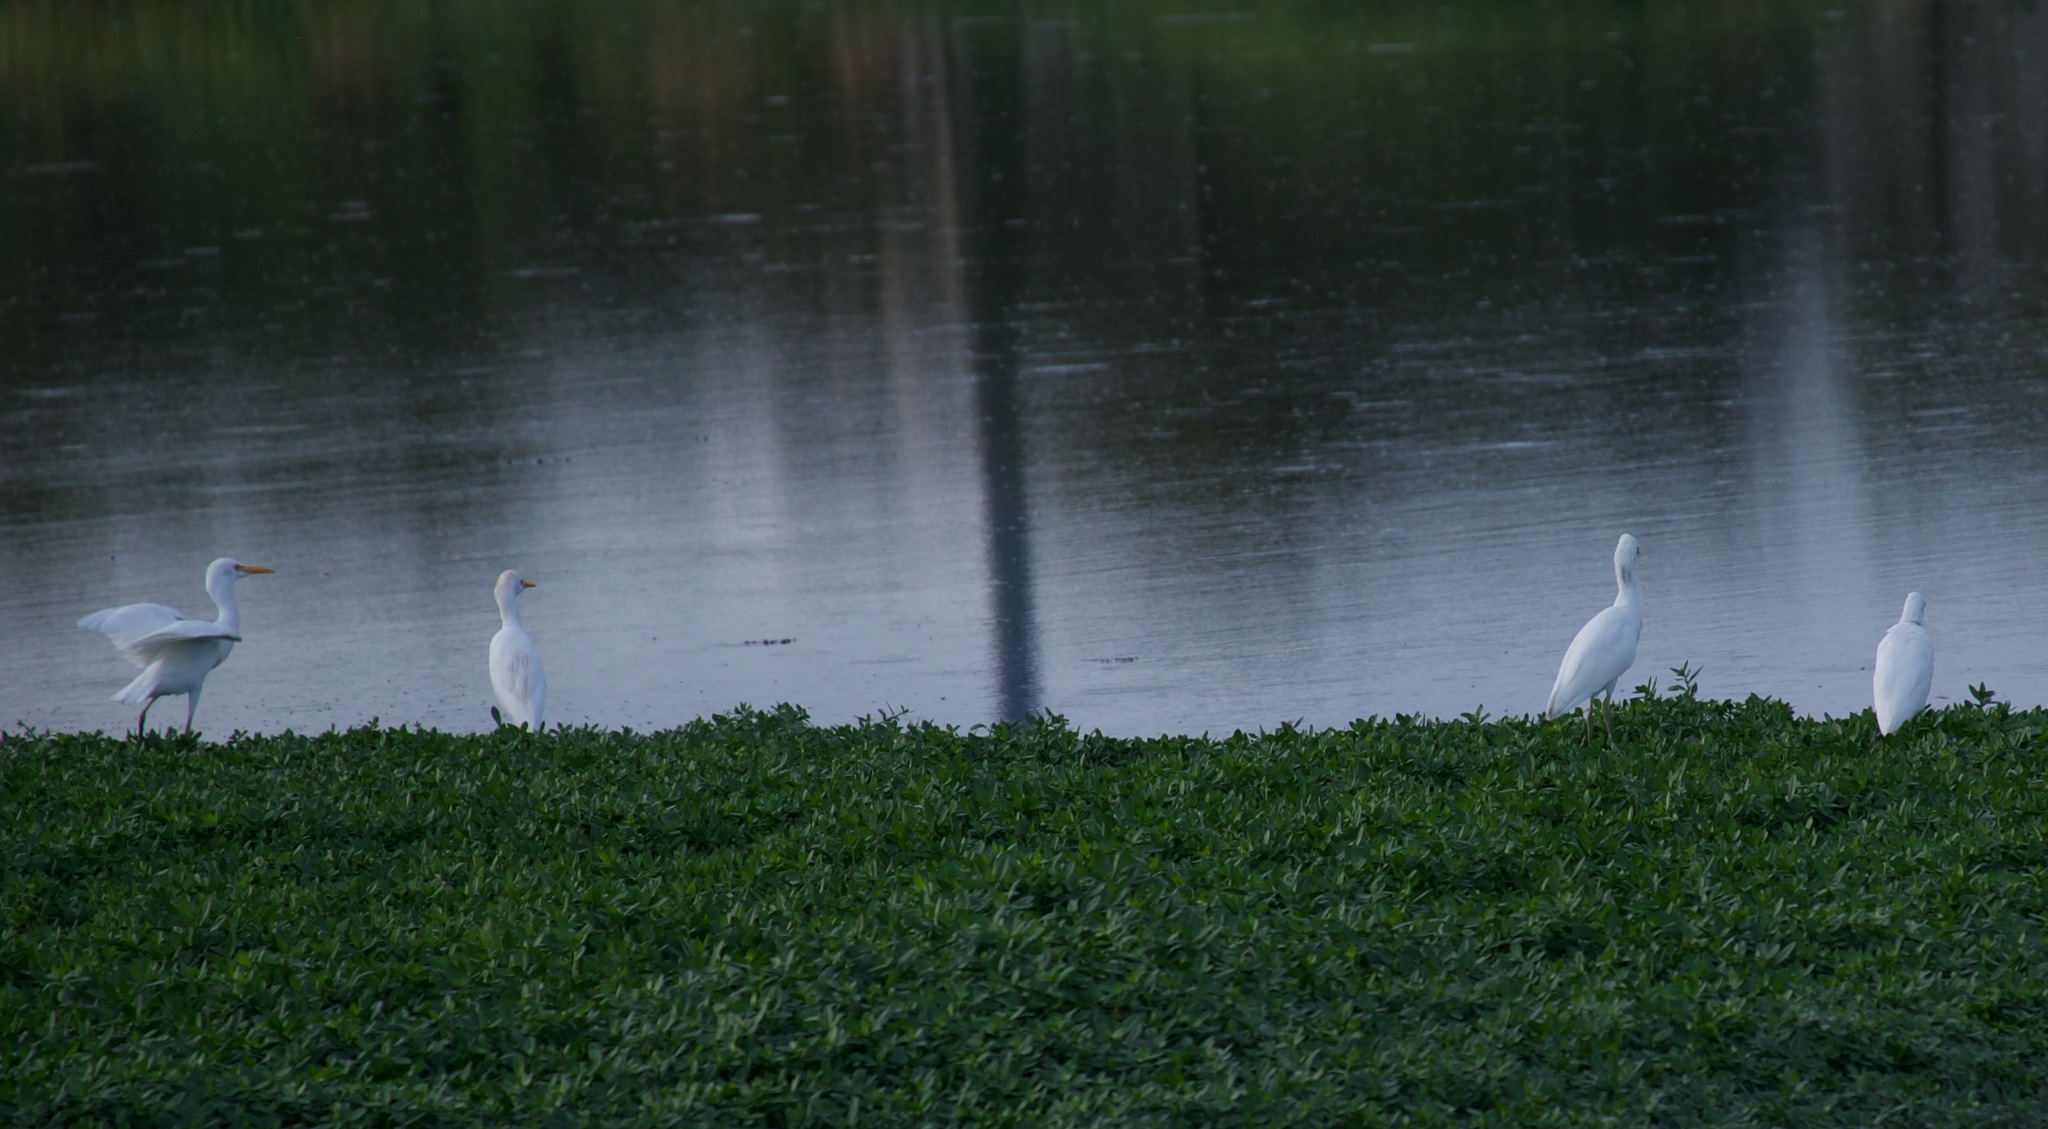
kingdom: Animalia
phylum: Chordata
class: Aves
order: Pelecaniformes
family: Ardeidae
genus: Bubulcus
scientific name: Bubulcus ibis
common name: Cattle egret
